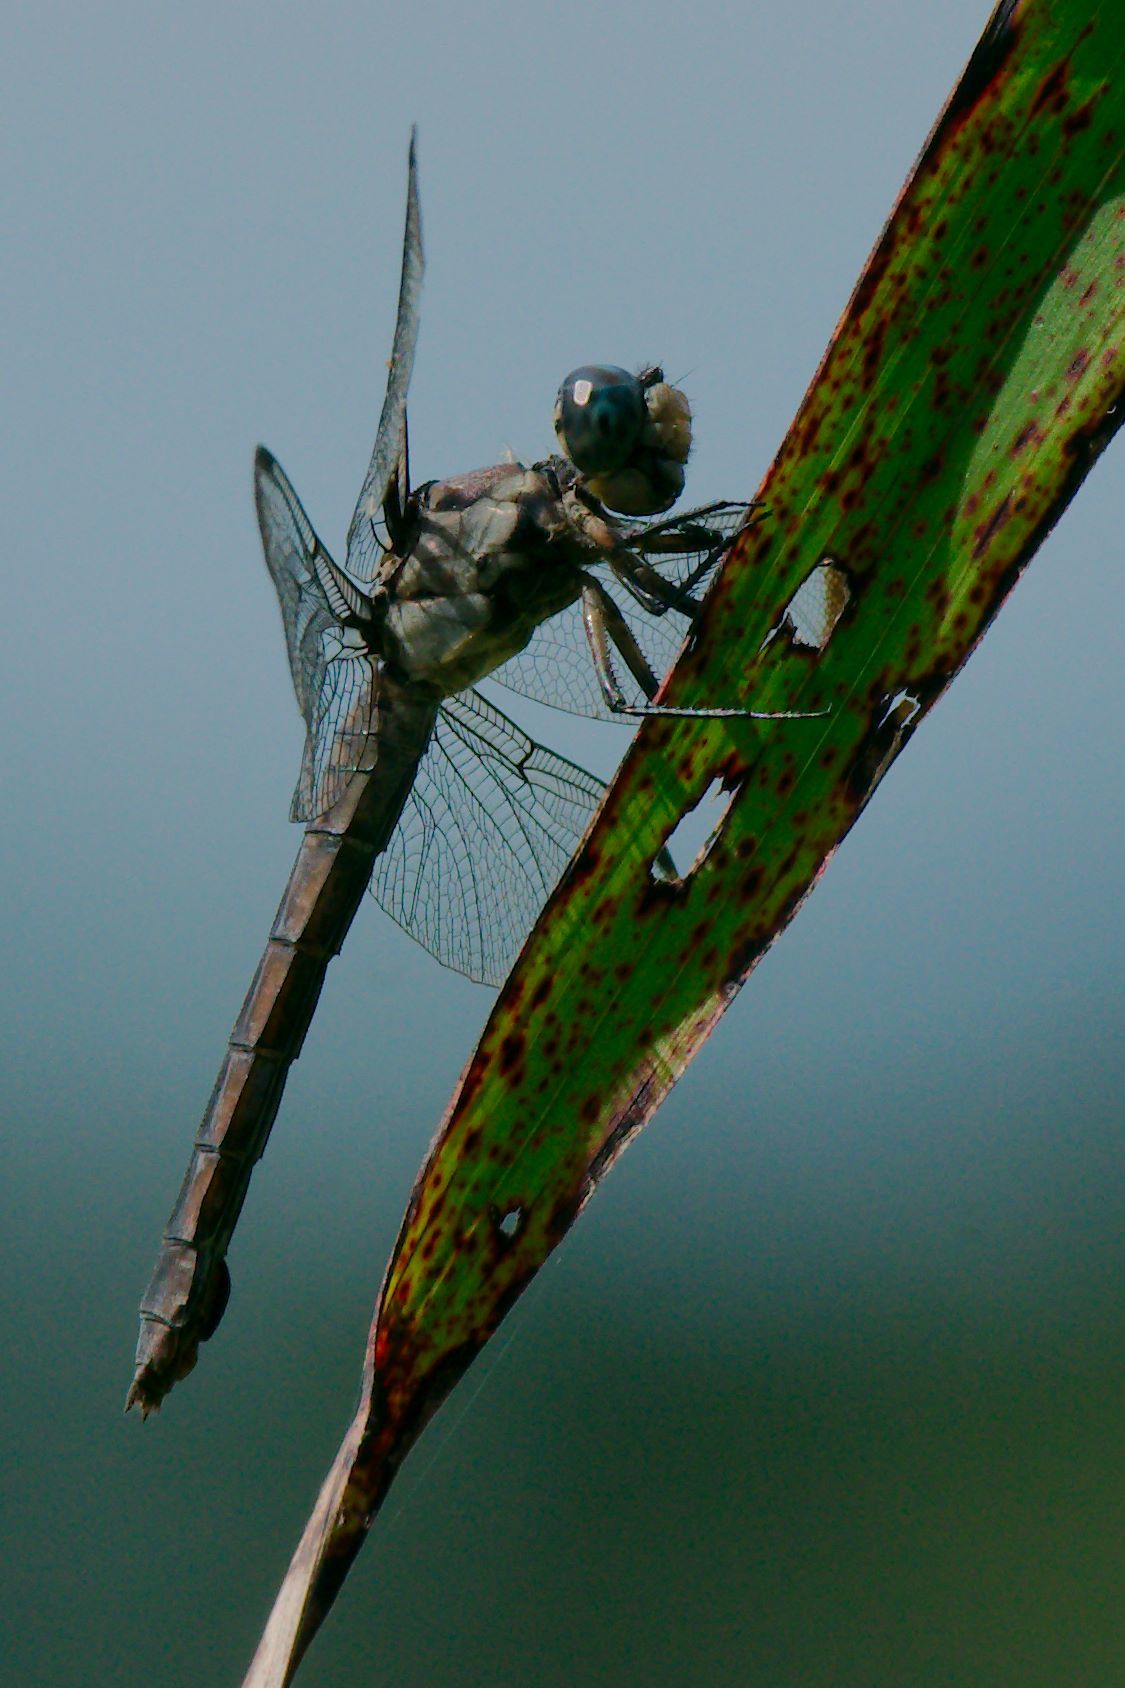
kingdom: Animalia
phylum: Arthropoda
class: Insecta
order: Odonata
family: Libellulidae
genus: Libellula
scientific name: Libellula vibrans
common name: Great blue skimmer
